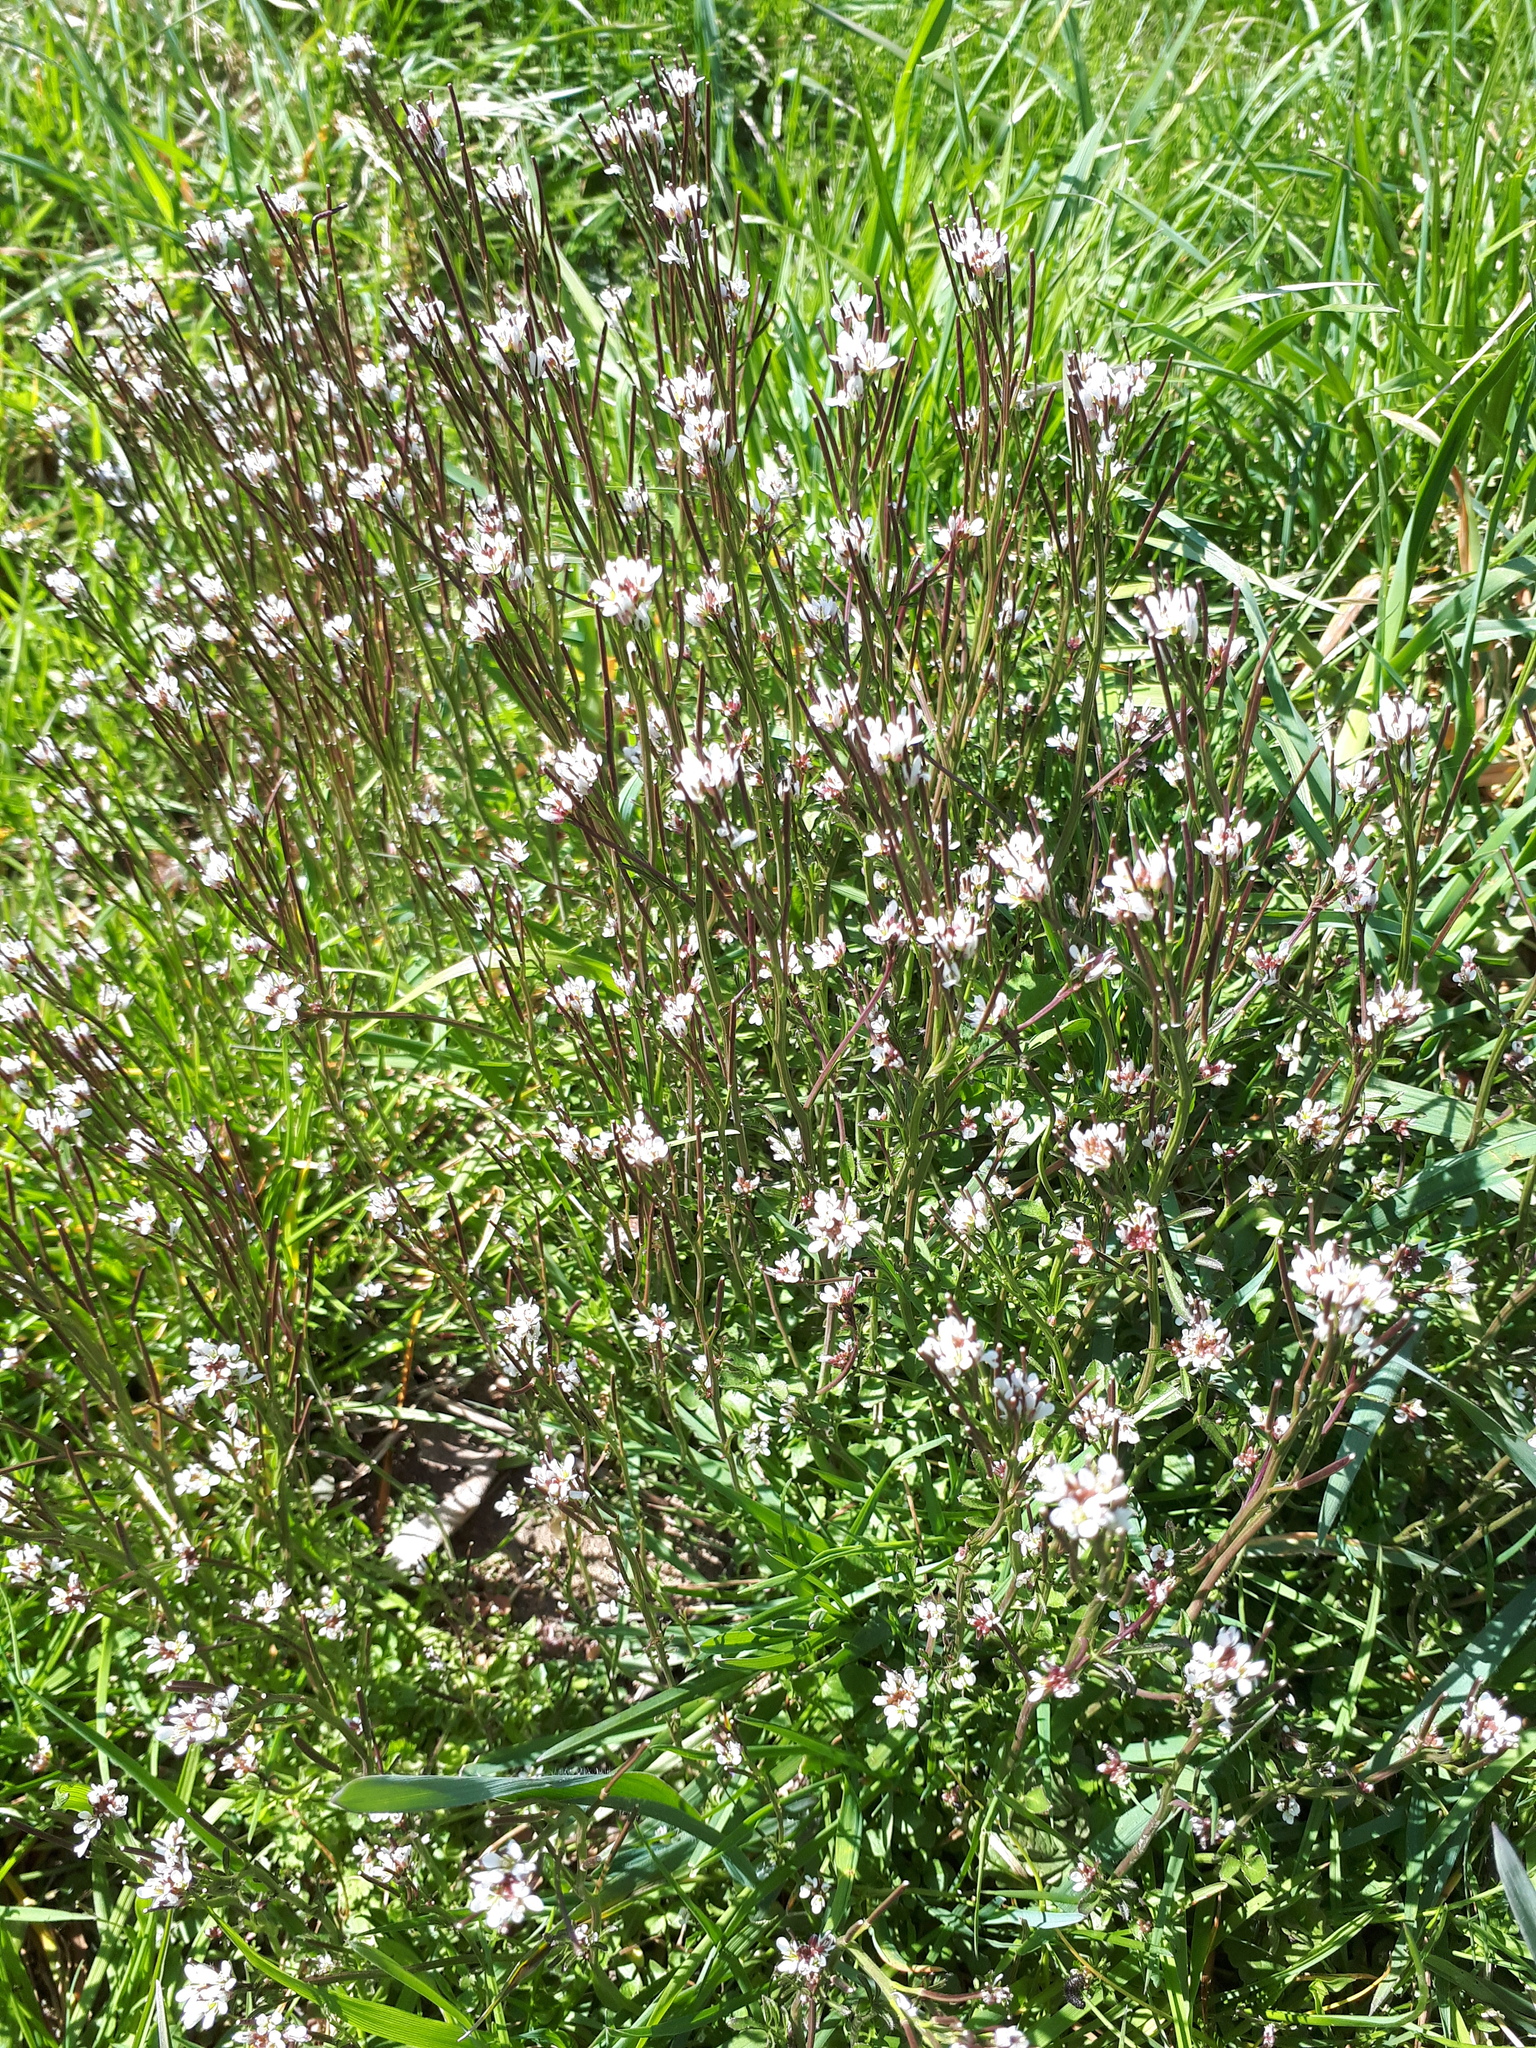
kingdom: Plantae
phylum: Tracheophyta
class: Magnoliopsida
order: Brassicales
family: Brassicaceae
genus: Cardamine
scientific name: Cardamine hirsuta
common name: Hairy bittercress
